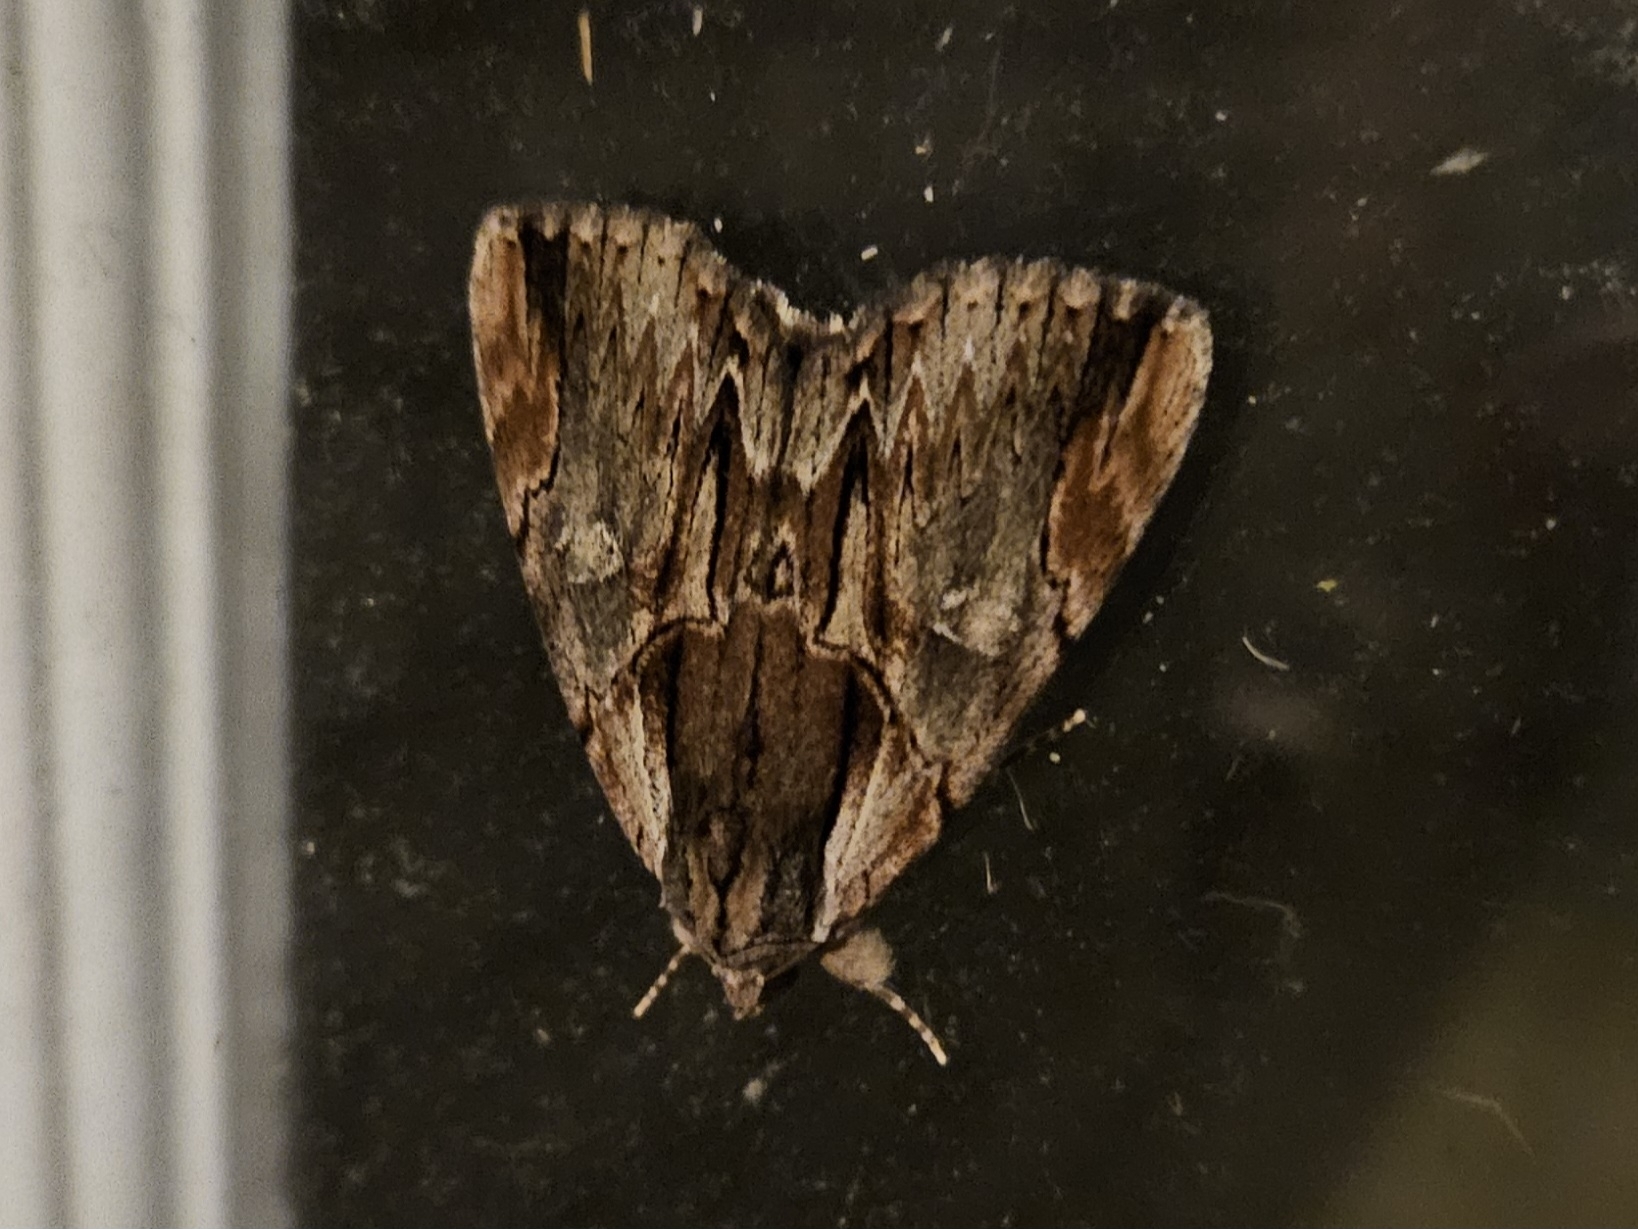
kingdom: Animalia
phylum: Arthropoda
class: Insecta
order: Lepidoptera
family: Erebidae
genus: Catocala
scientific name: Catocala ultronia
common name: Ultronia underwing
